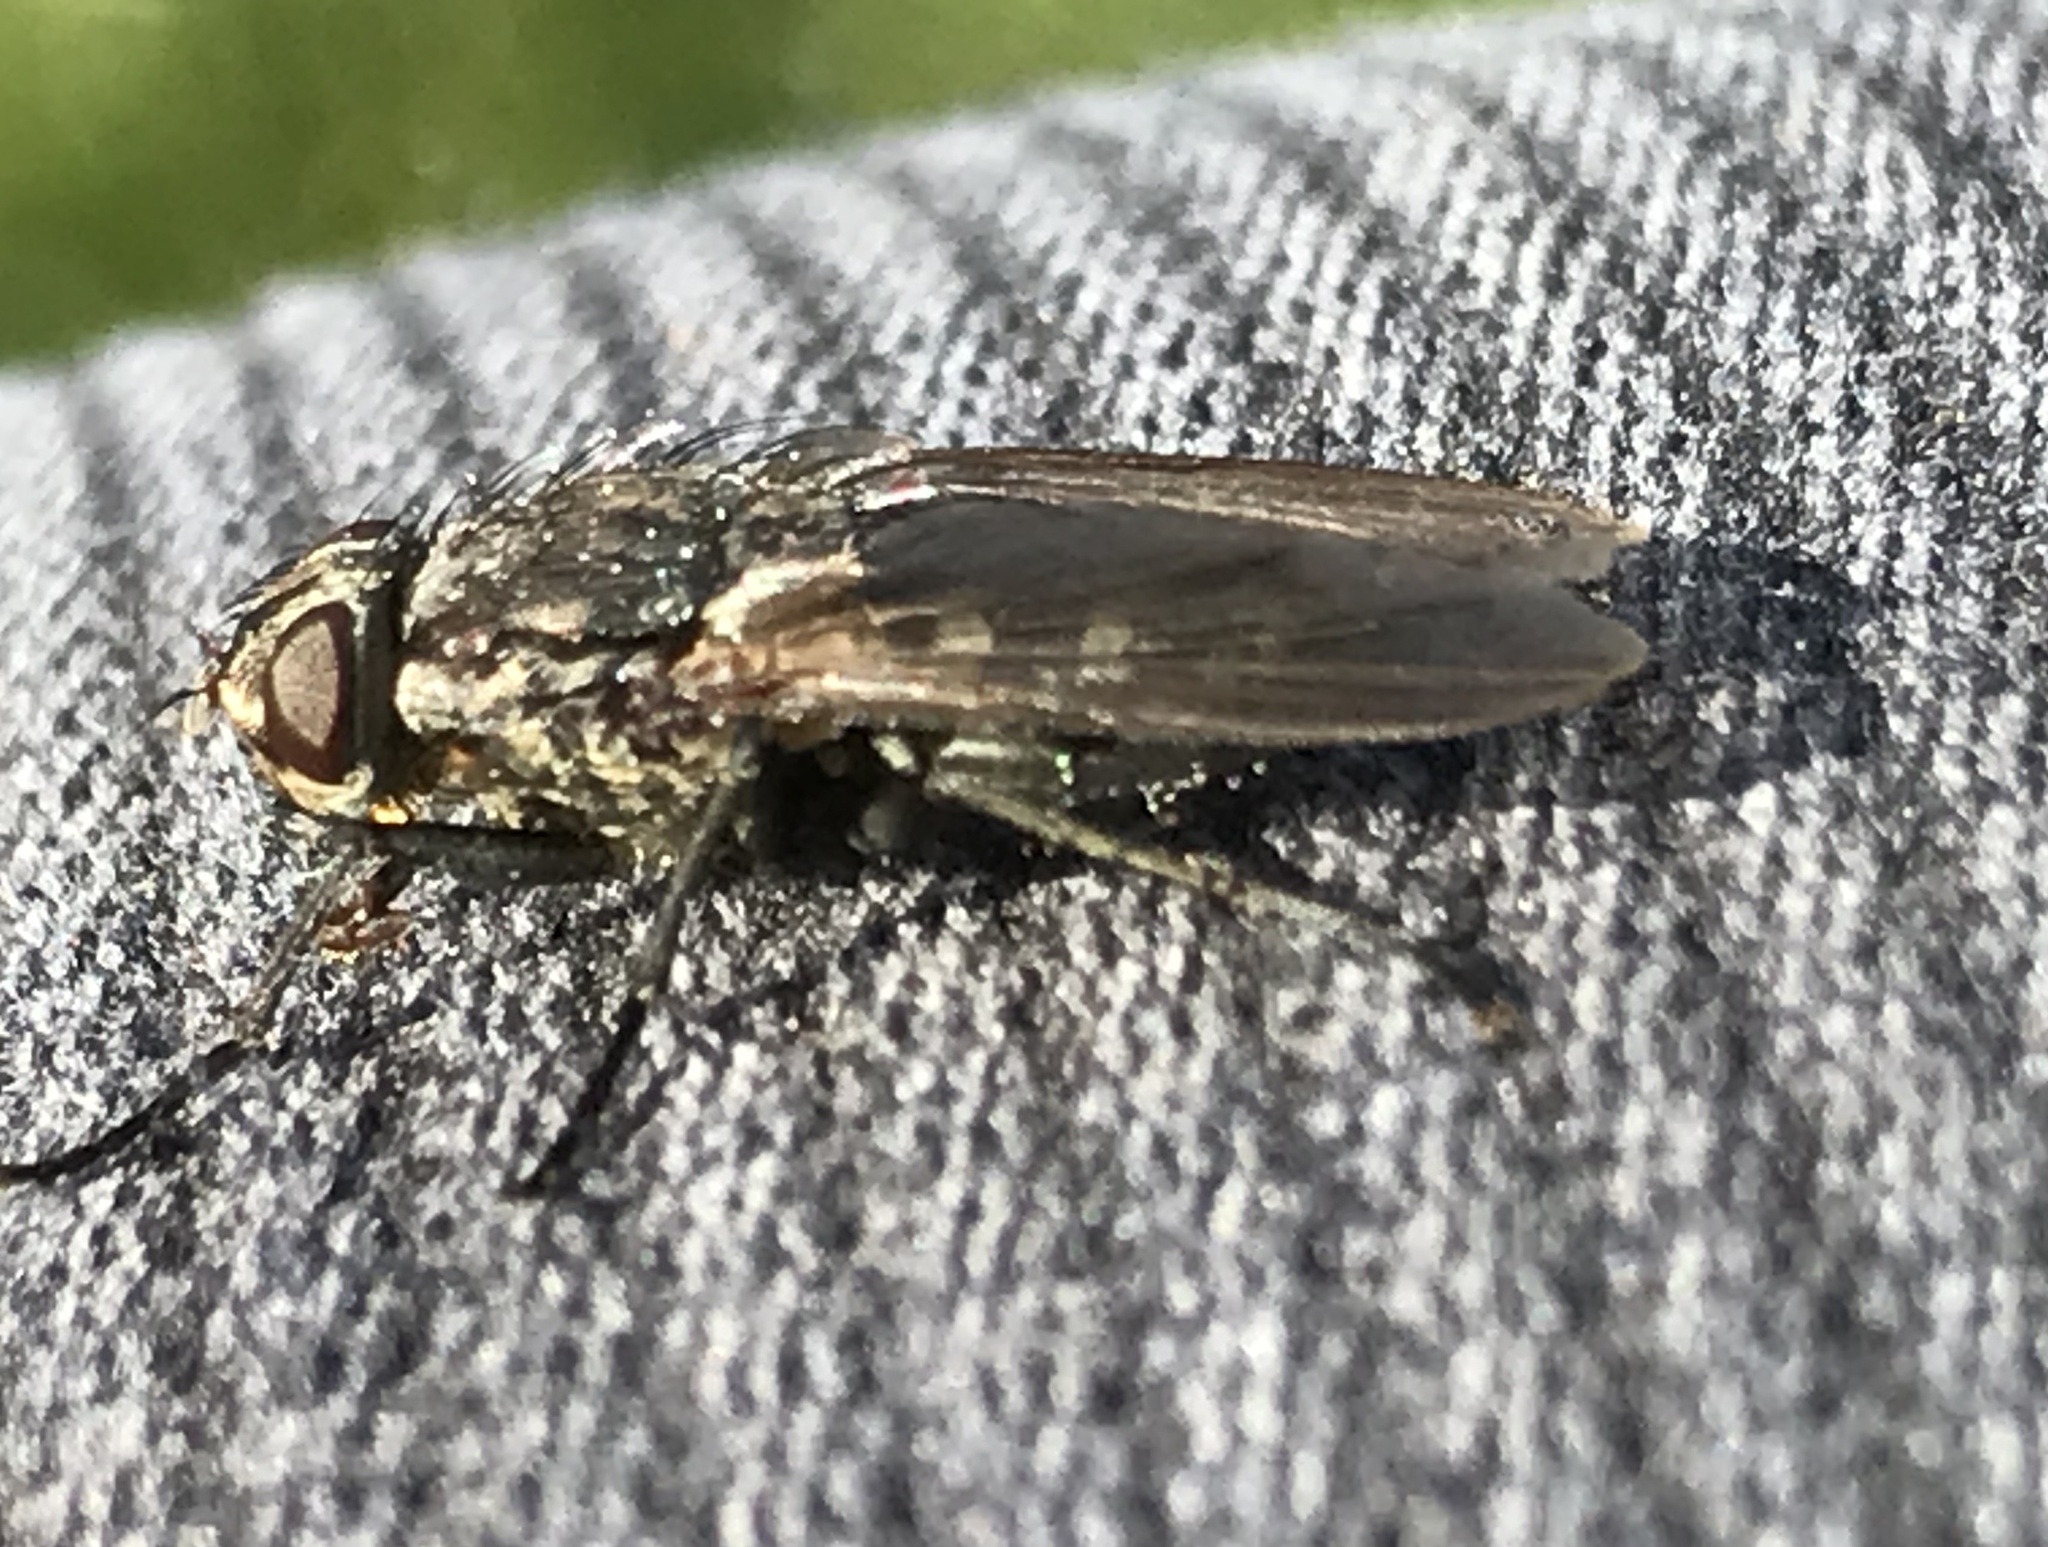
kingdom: Animalia
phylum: Arthropoda
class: Insecta
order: Diptera
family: Polleniidae
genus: Pollenia
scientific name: Pollenia vagabunda
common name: Vagabund cluster fly
